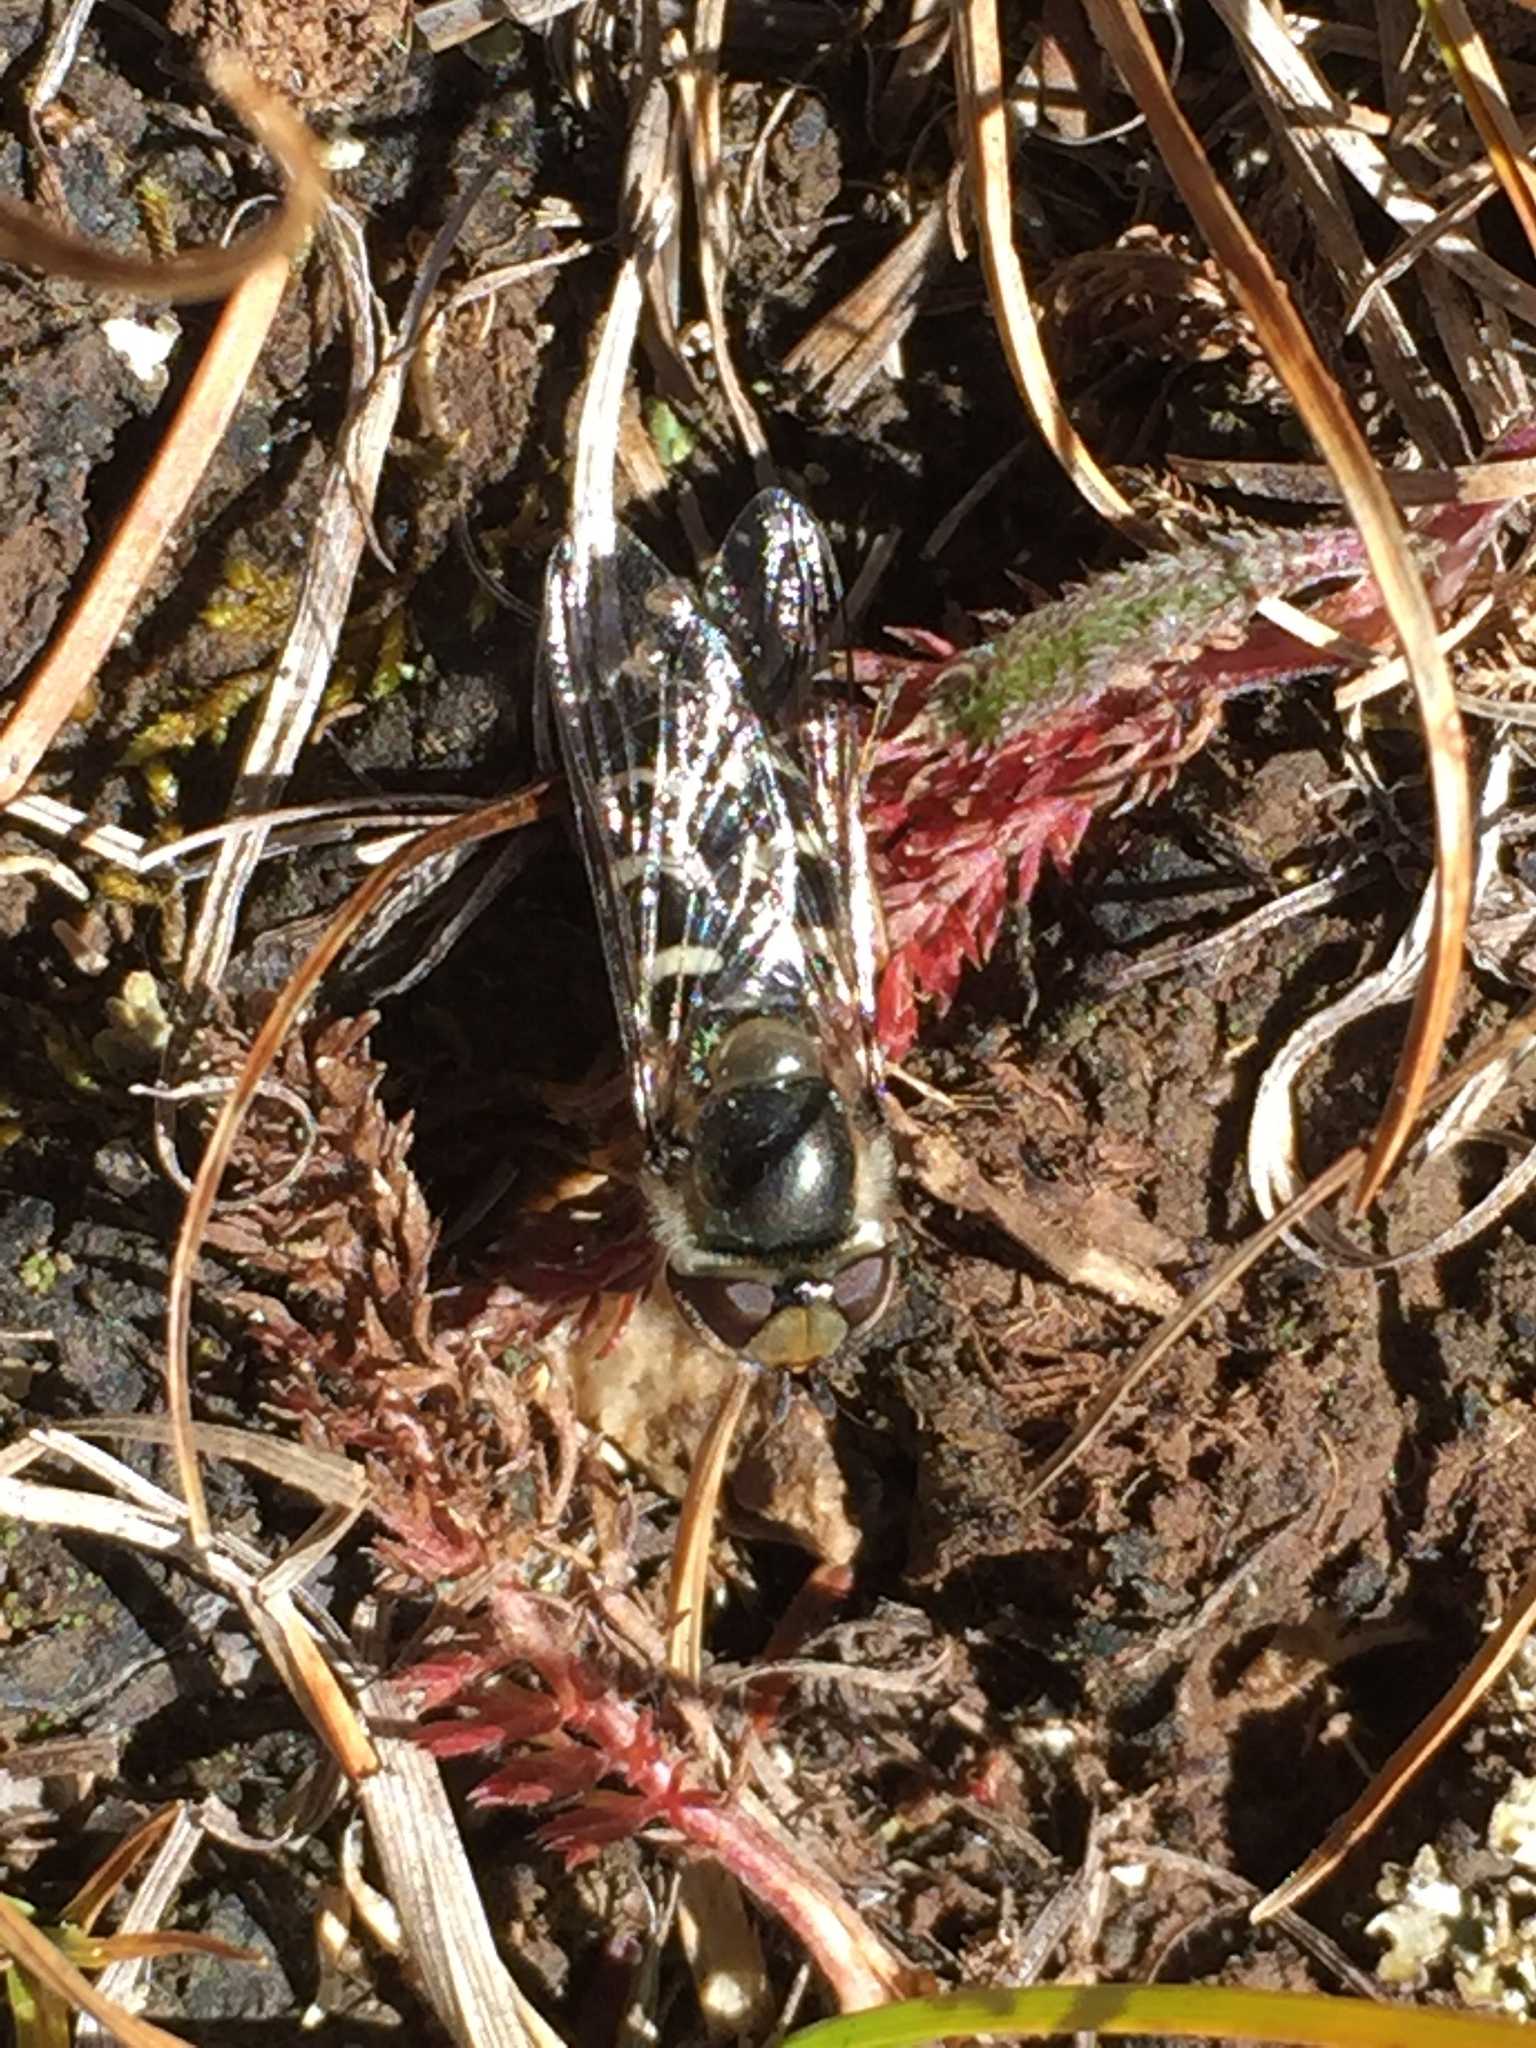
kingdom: Animalia
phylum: Arthropoda
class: Insecta
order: Diptera
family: Syrphidae
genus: Scaeva
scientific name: Scaeva affinis
